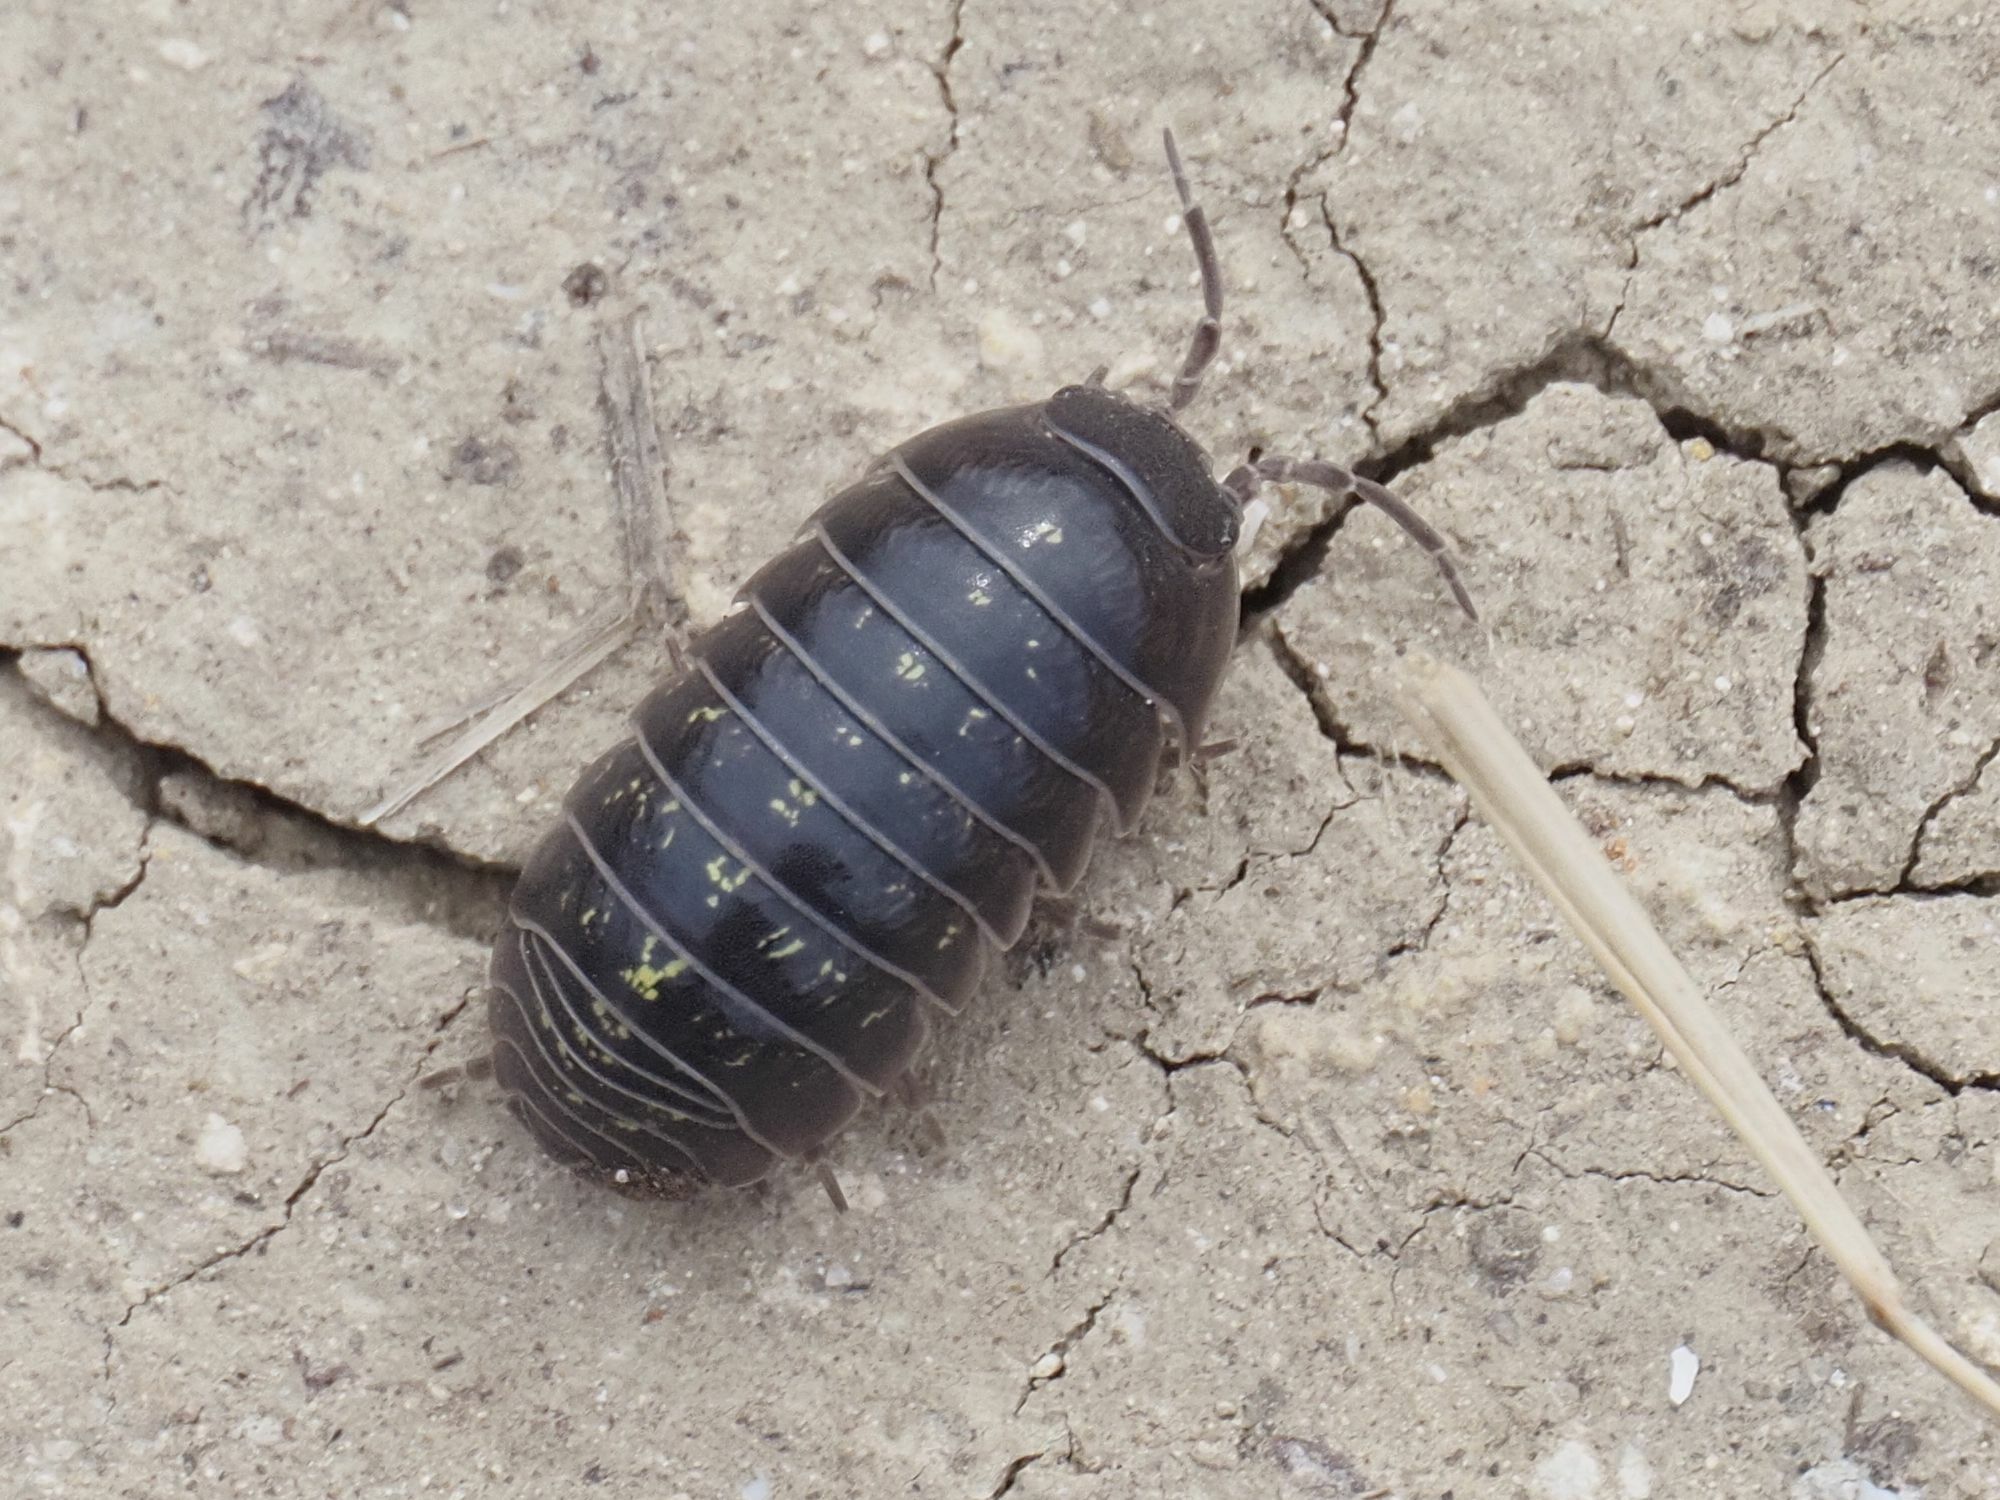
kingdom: Animalia
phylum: Arthropoda
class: Malacostraca
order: Isopoda
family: Armadillidiidae
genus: Armadillidium
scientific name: Armadillidium vulgare
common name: Common pill woodlouse
